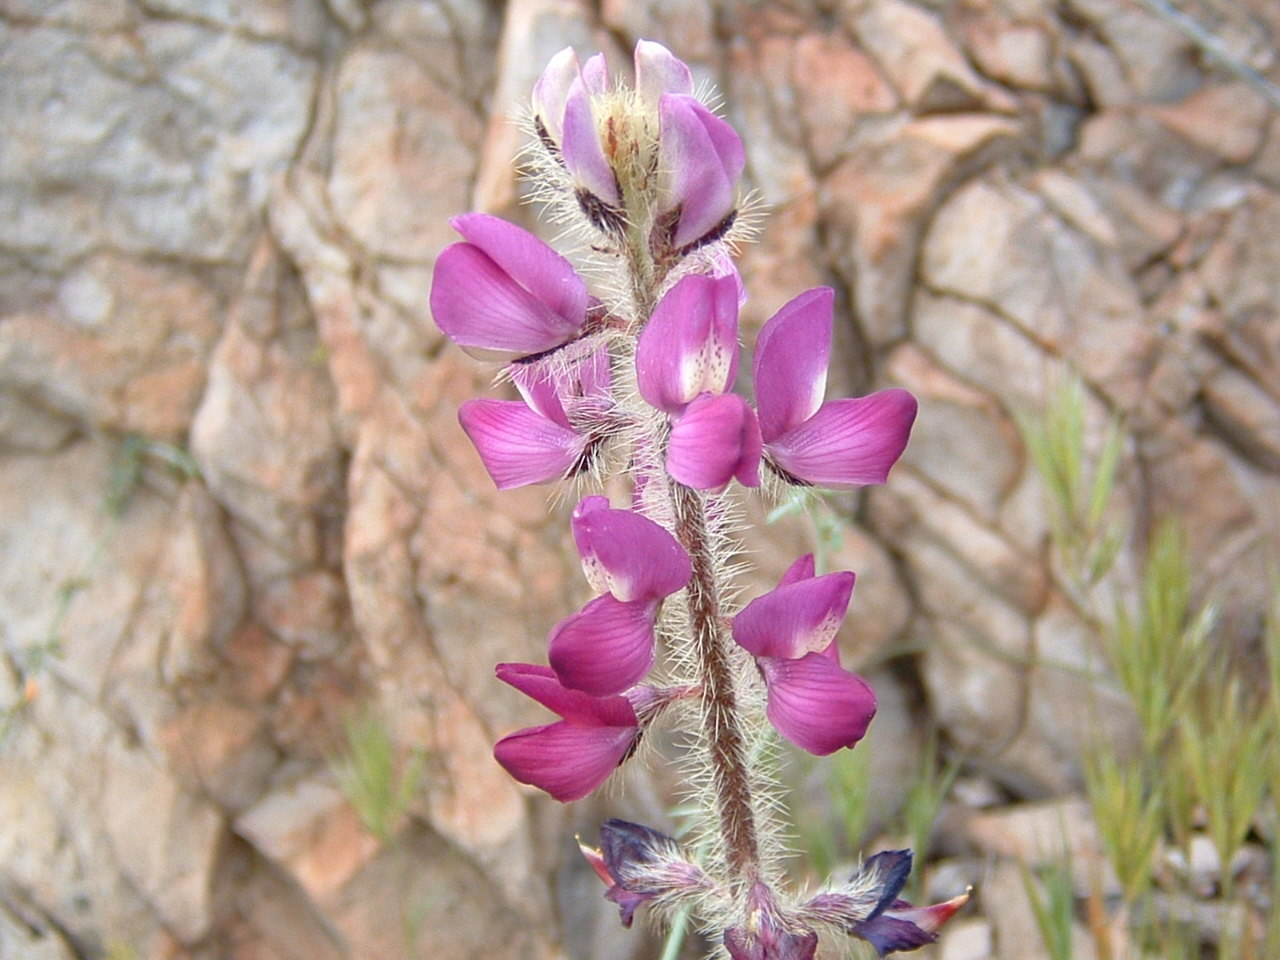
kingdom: Plantae
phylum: Tracheophyta
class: Magnoliopsida
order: Fabales
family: Fabaceae
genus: Lupinus
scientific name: Lupinus hirsutissimus
